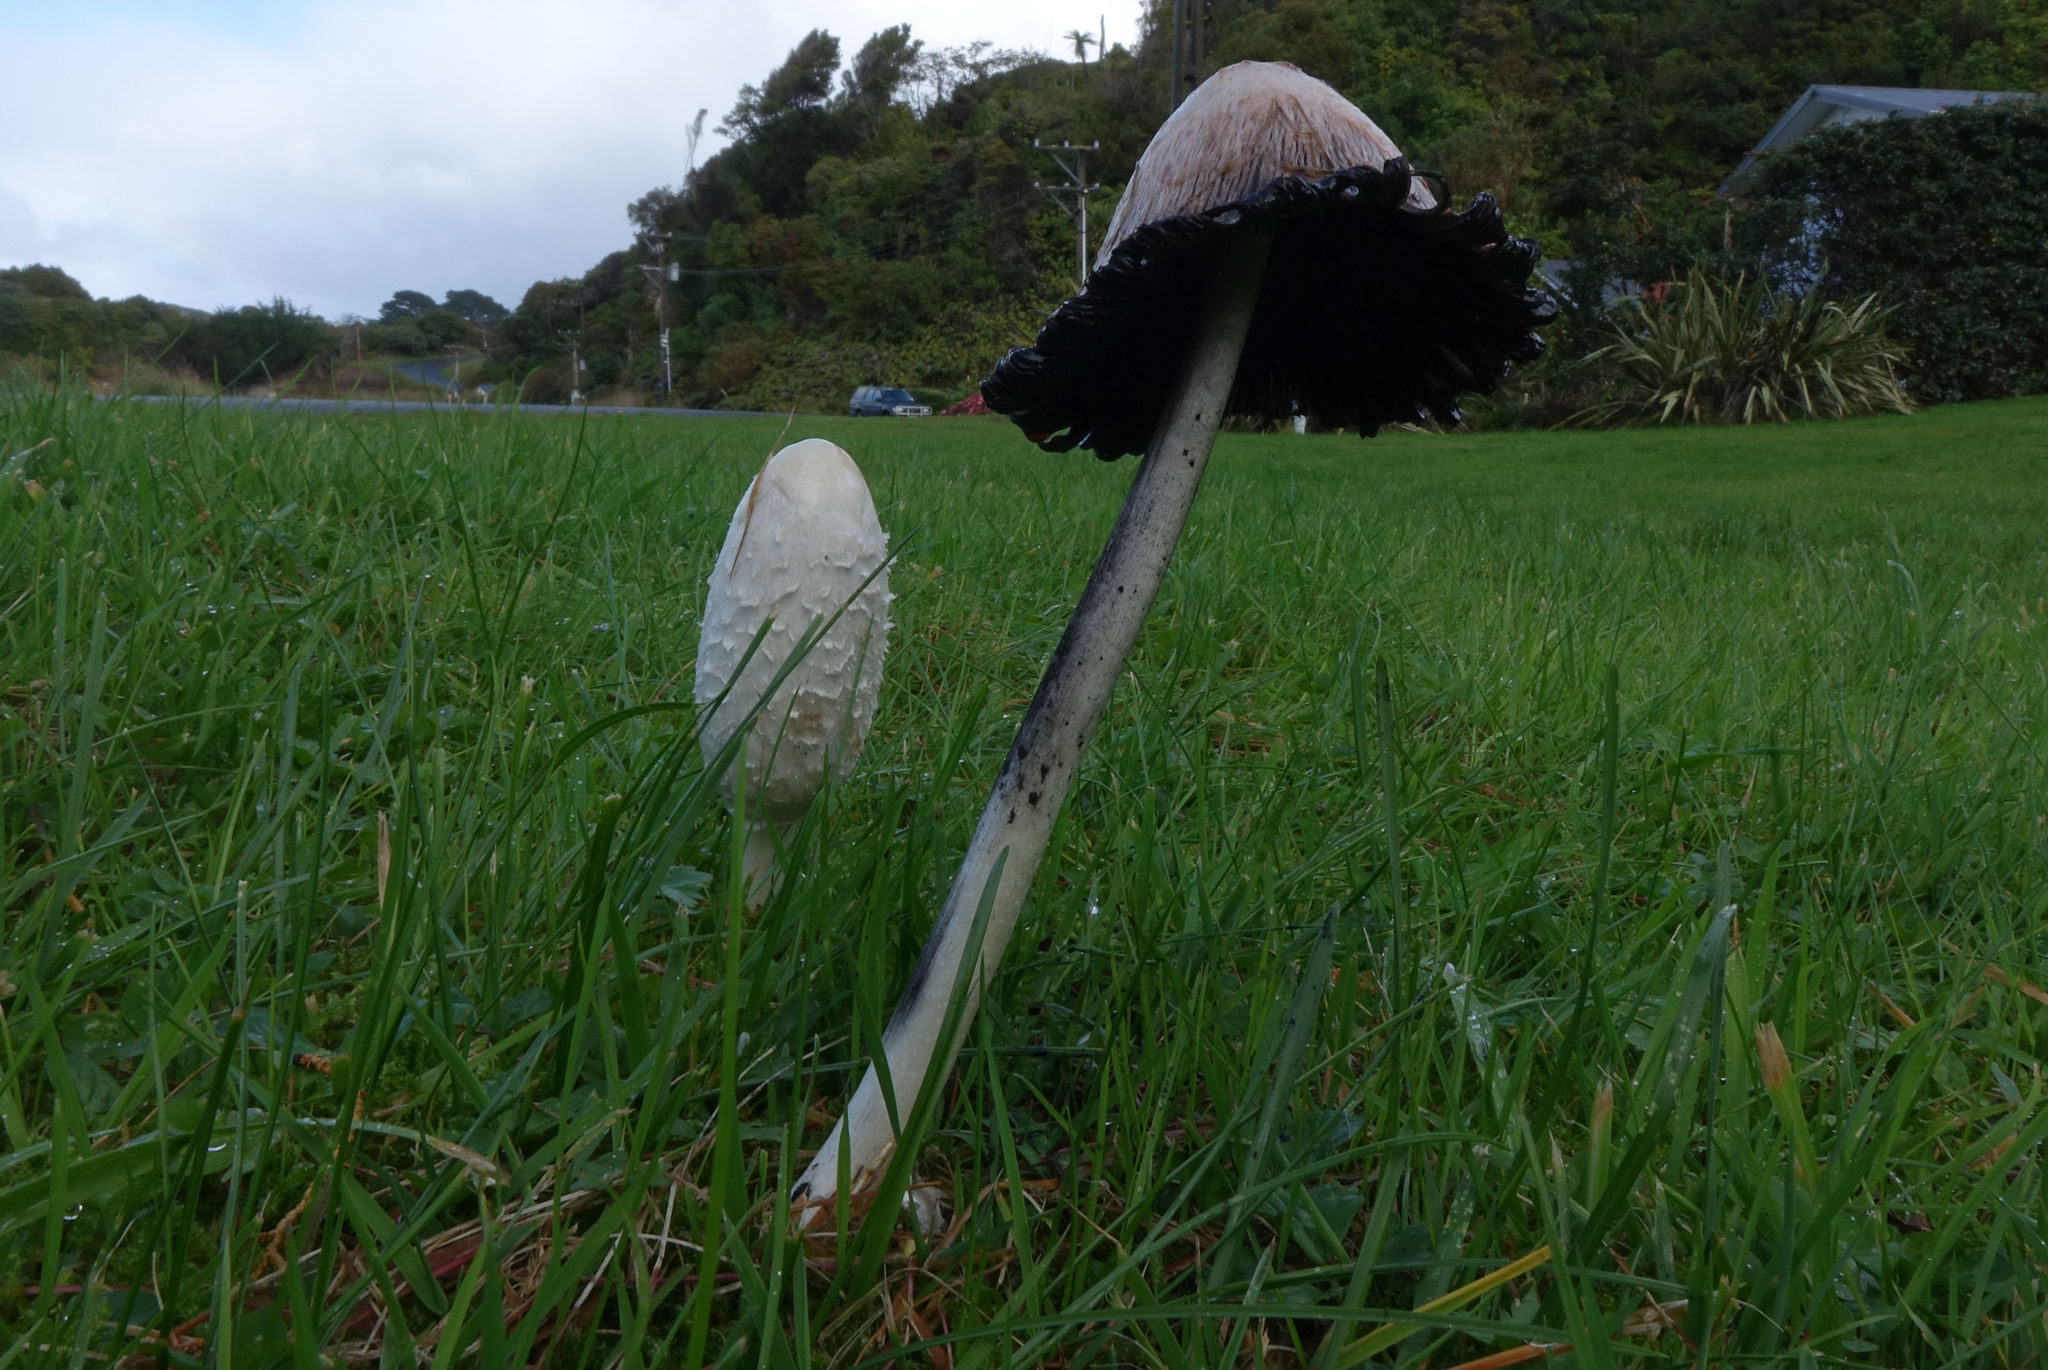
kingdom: Fungi
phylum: Basidiomycota
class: Agaricomycetes
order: Agaricales
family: Agaricaceae
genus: Coprinus
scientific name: Coprinus comatus
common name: Lawyer's wig
